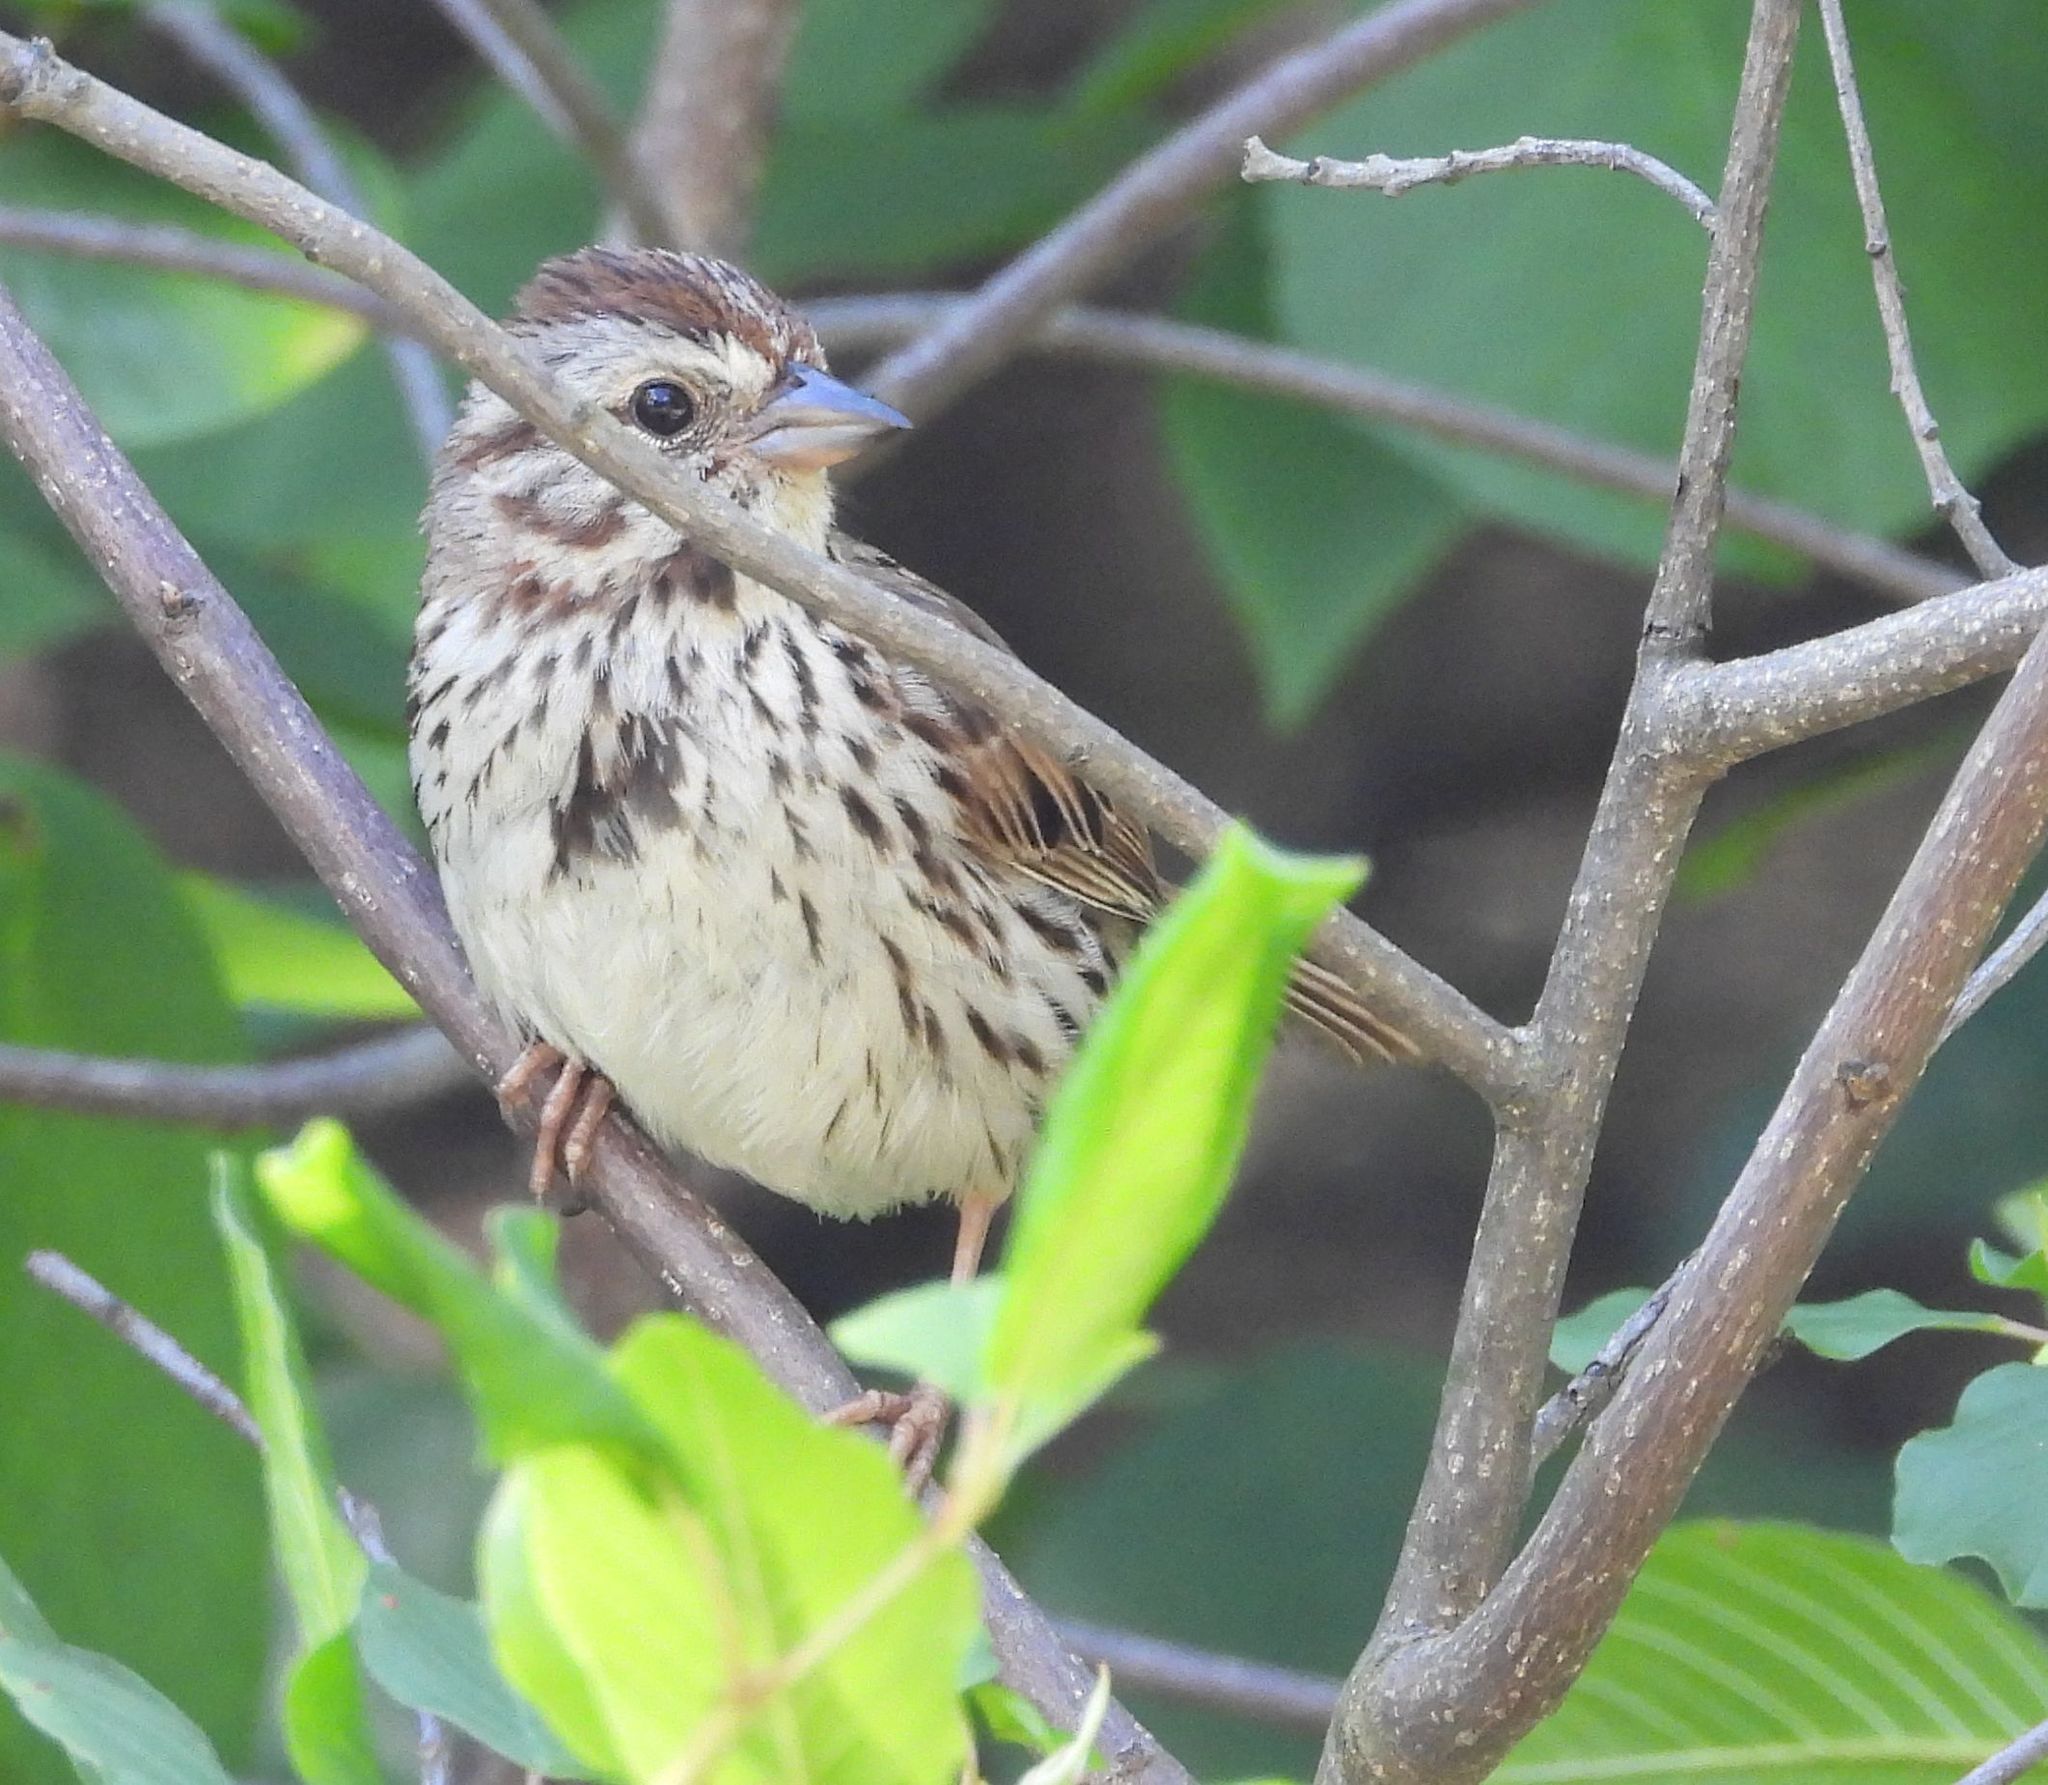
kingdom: Animalia
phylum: Chordata
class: Aves
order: Passeriformes
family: Passerellidae
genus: Melospiza
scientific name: Melospiza melodia
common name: Song sparrow
